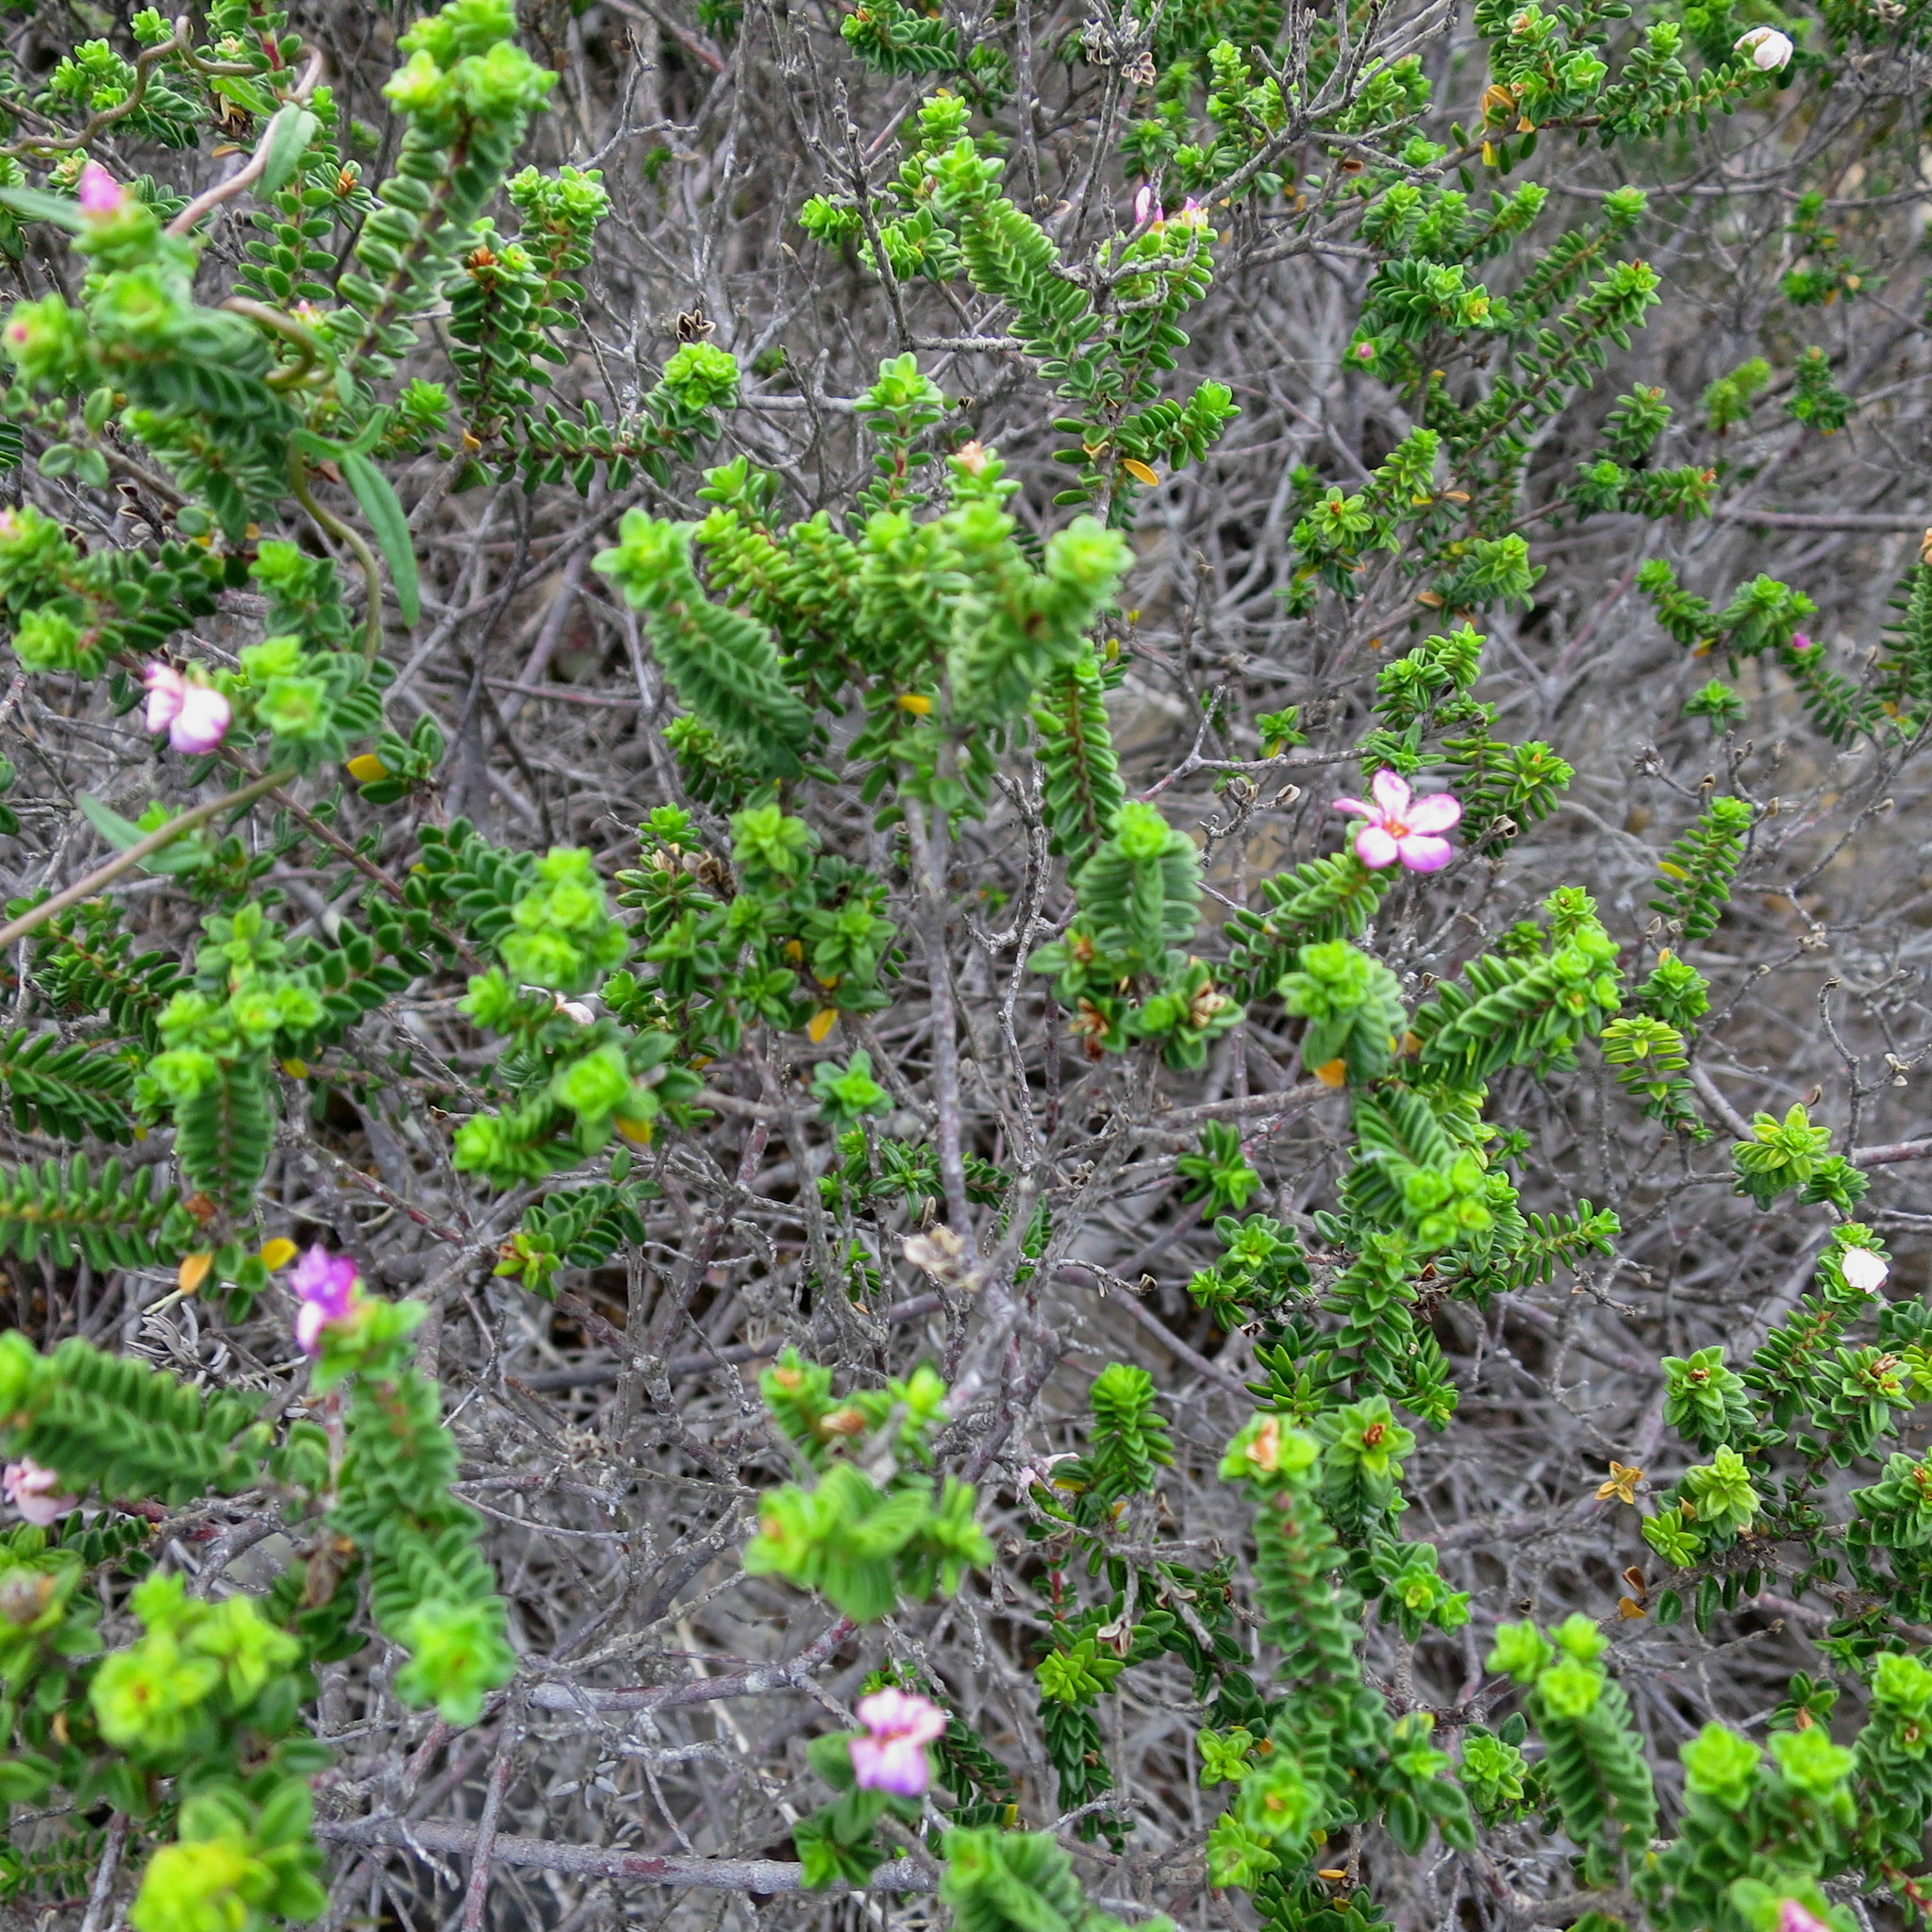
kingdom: Plantae
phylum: Tracheophyta
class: Magnoliopsida
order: Sapindales
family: Rutaceae
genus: Acmadenia
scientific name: Acmadenia heterophylla
